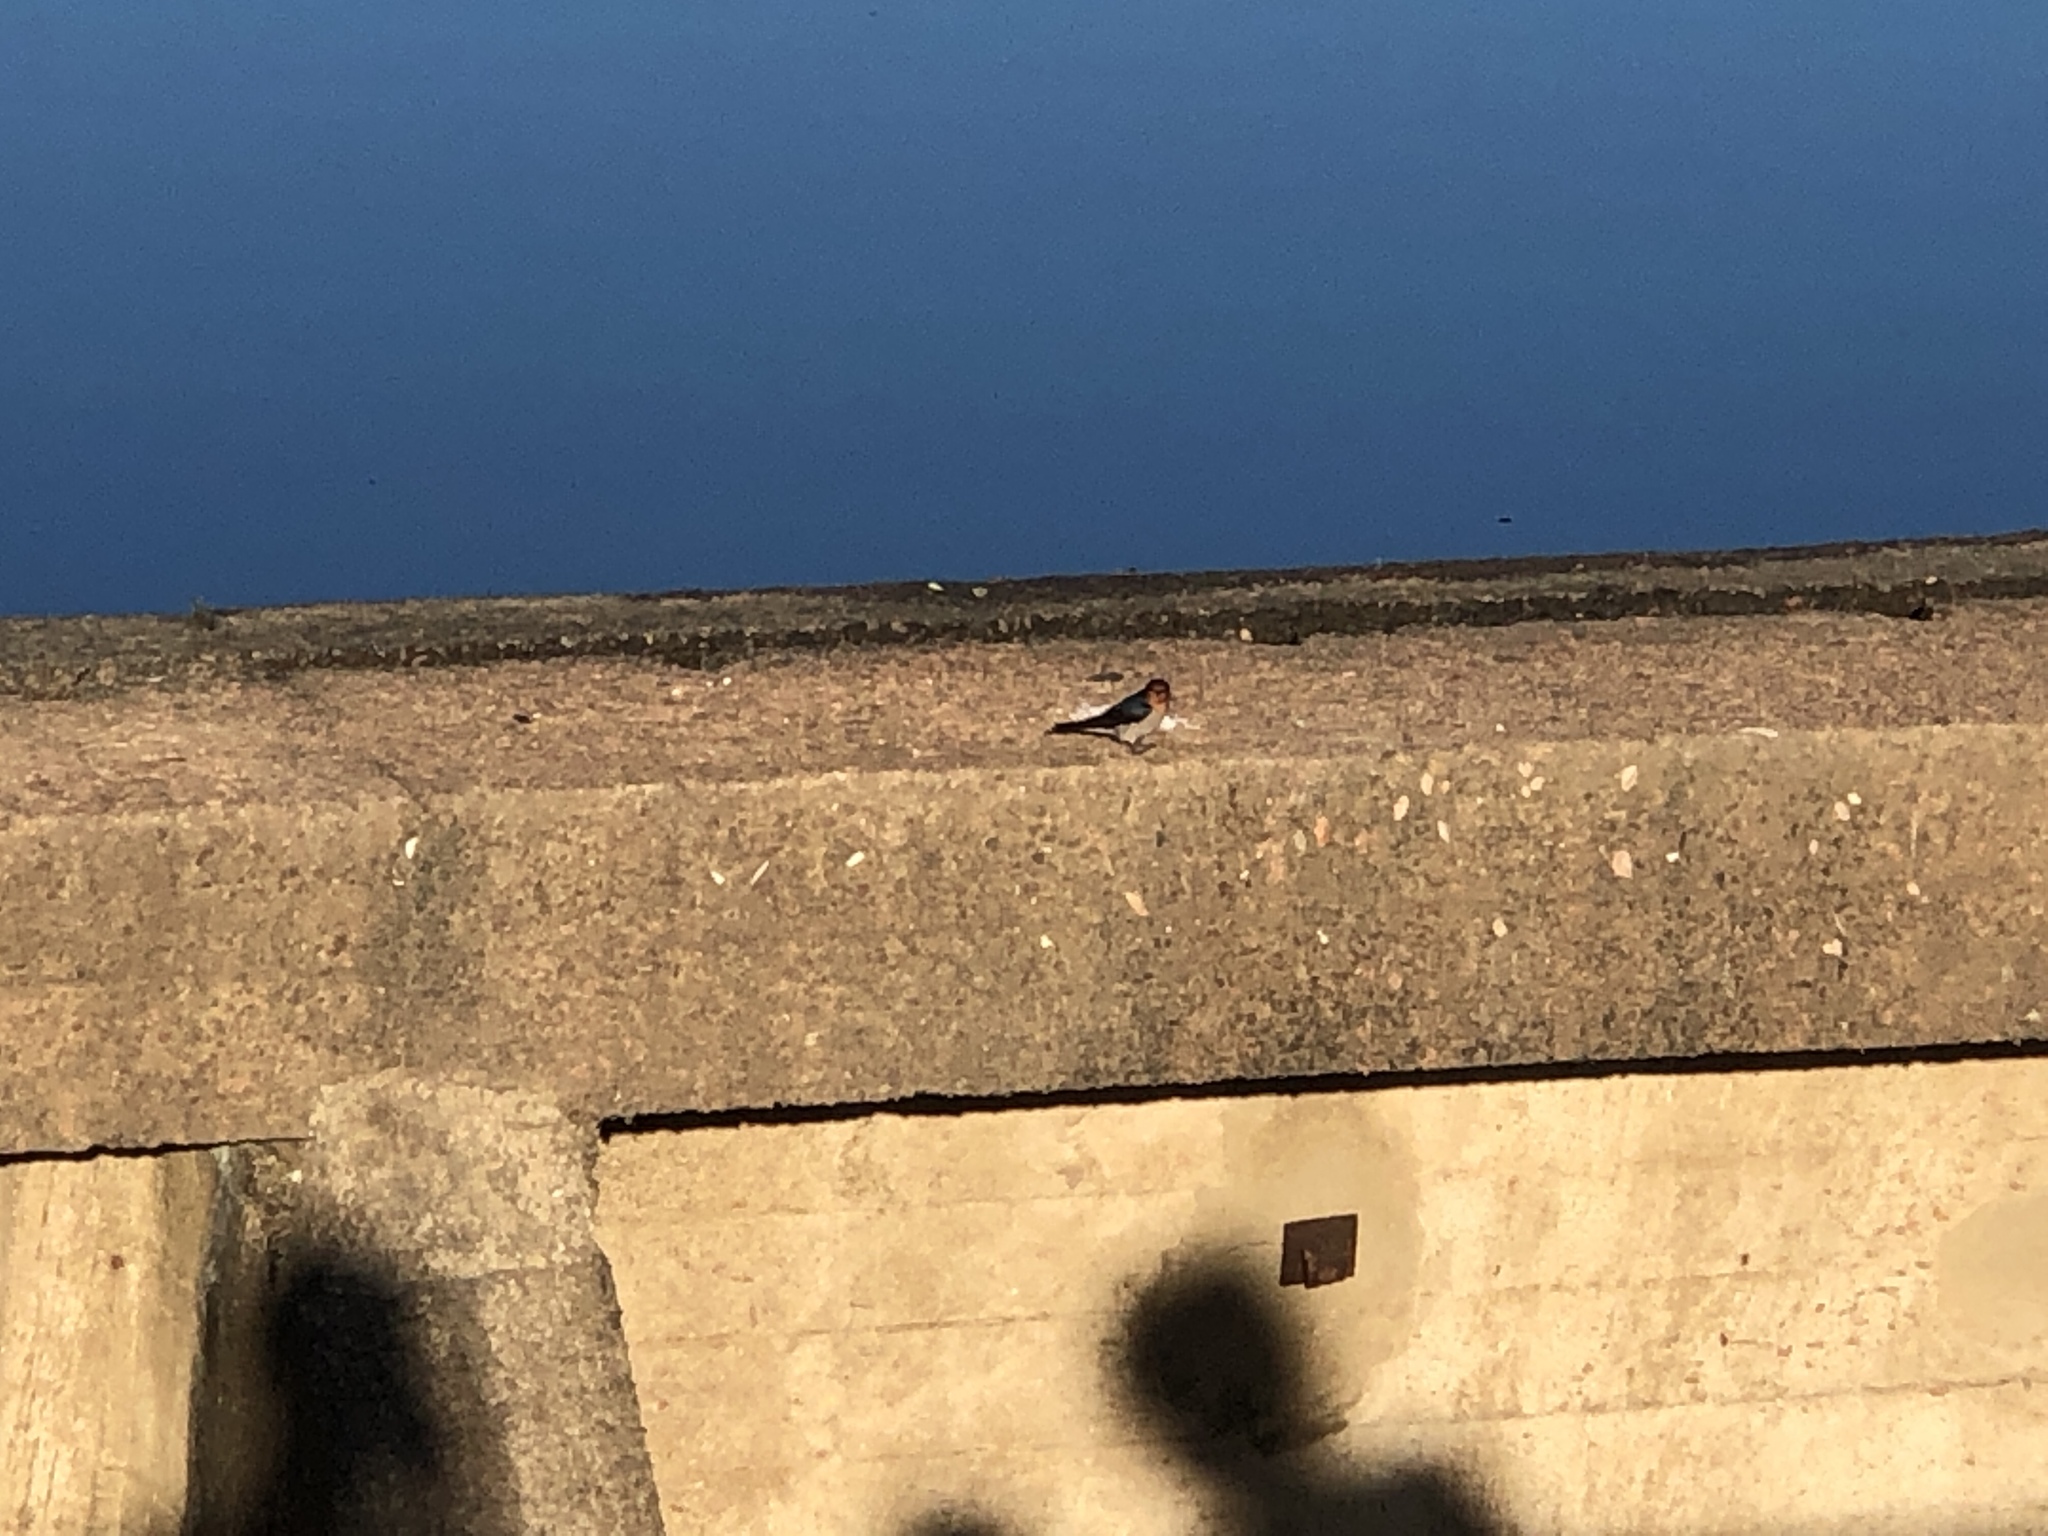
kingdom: Animalia
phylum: Chordata
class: Aves
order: Passeriformes
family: Hirundinidae
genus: Hirundo
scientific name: Hirundo neoxena
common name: Welcome swallow
